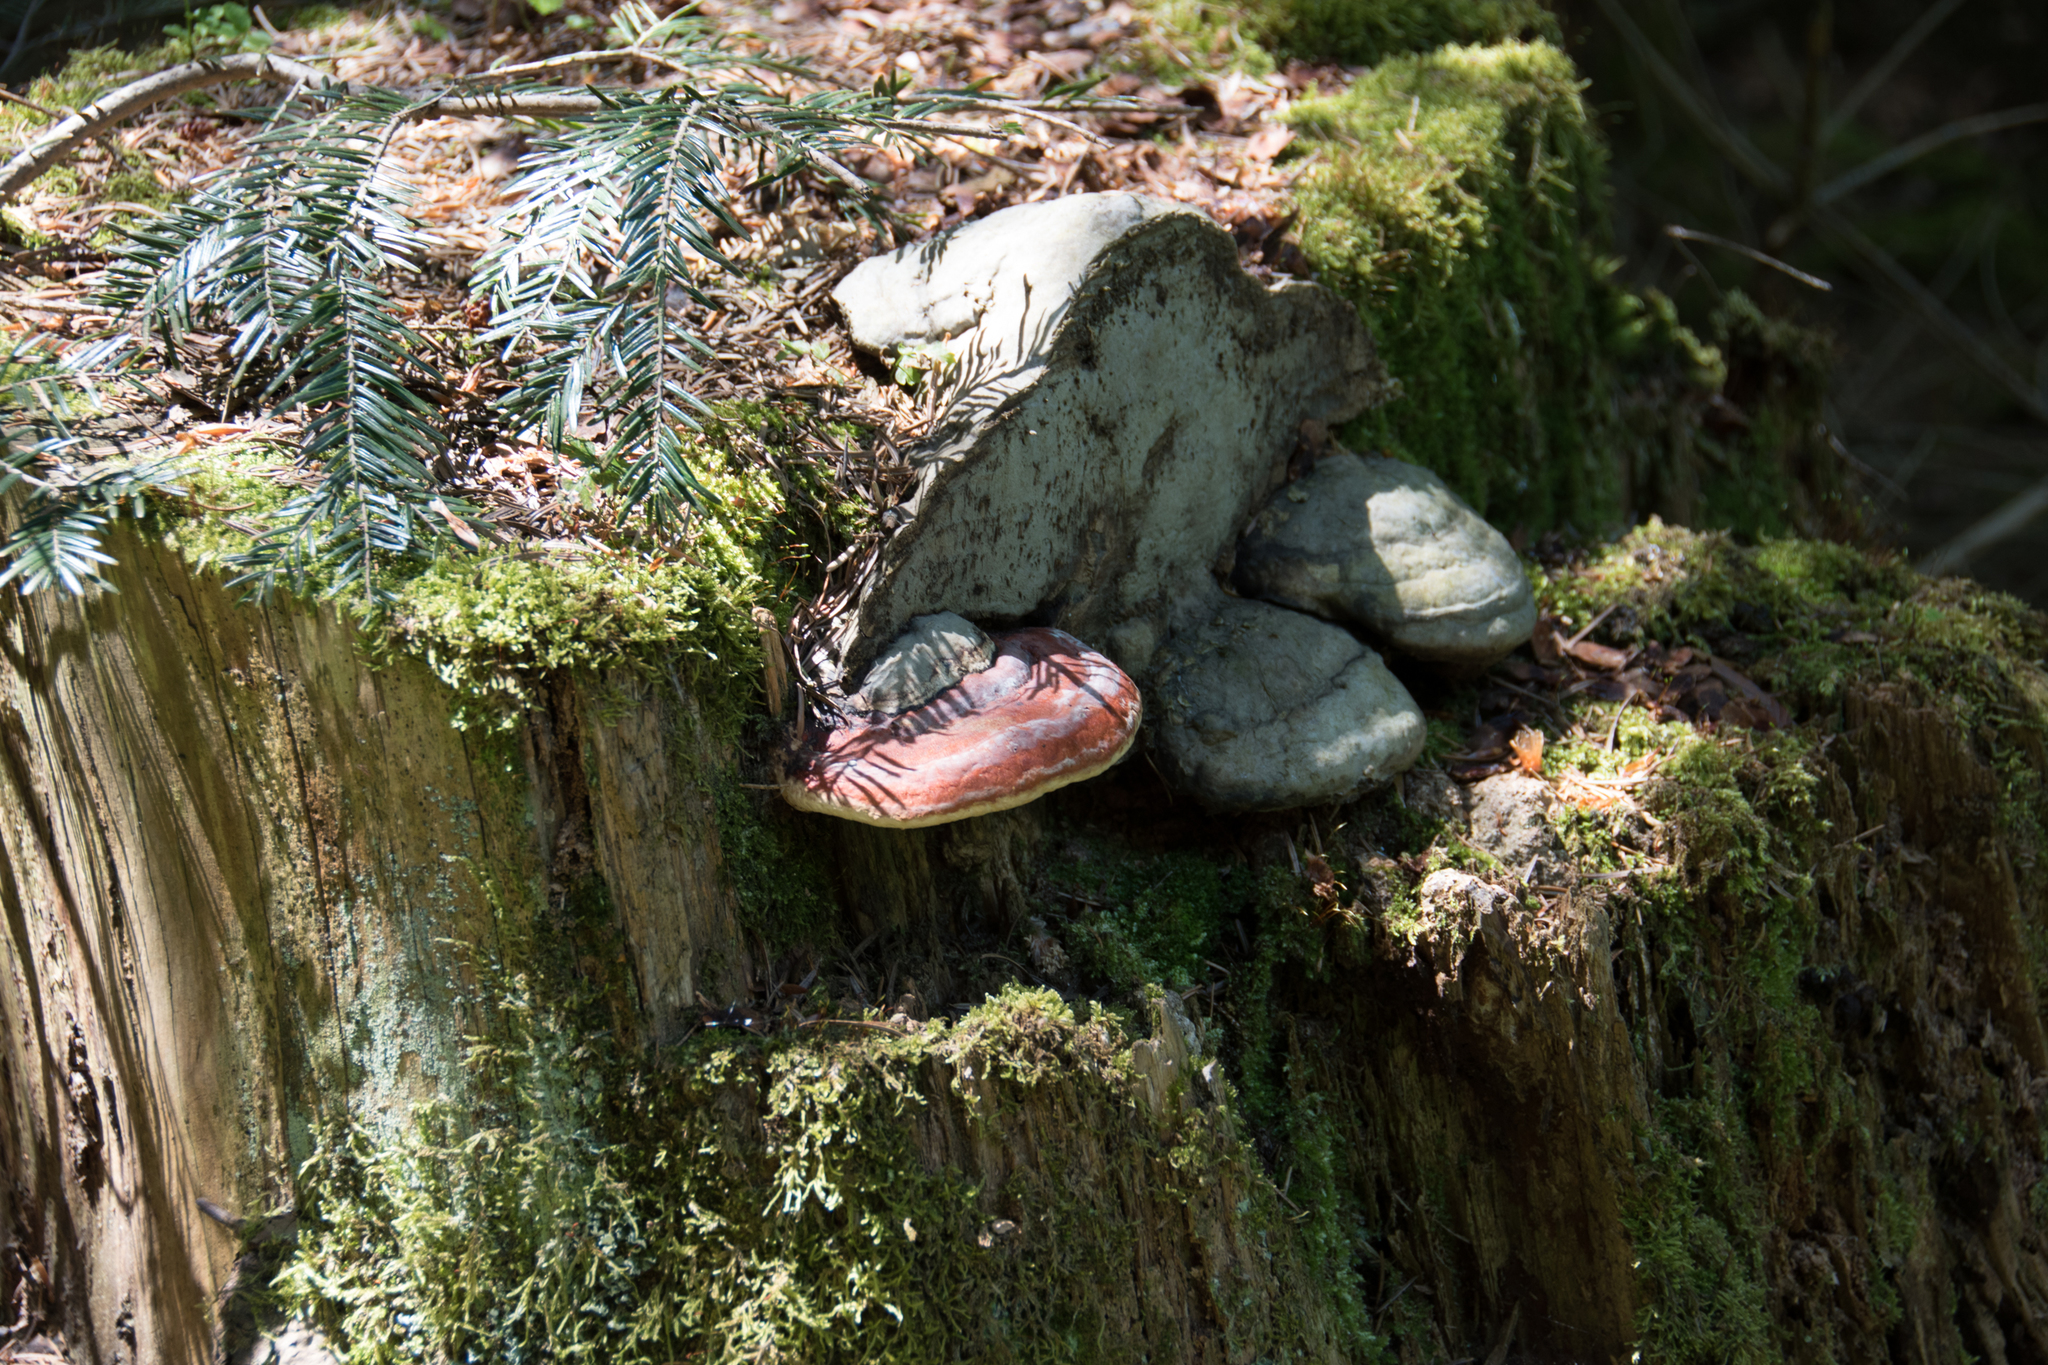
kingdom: Fungi
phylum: Basidiomycota
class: Agaricomycetes
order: Polyporales
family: Fomitopsidaceae
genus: Fomitopsis
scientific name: Fomitopsis pinicola
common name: Red-belted bracket
